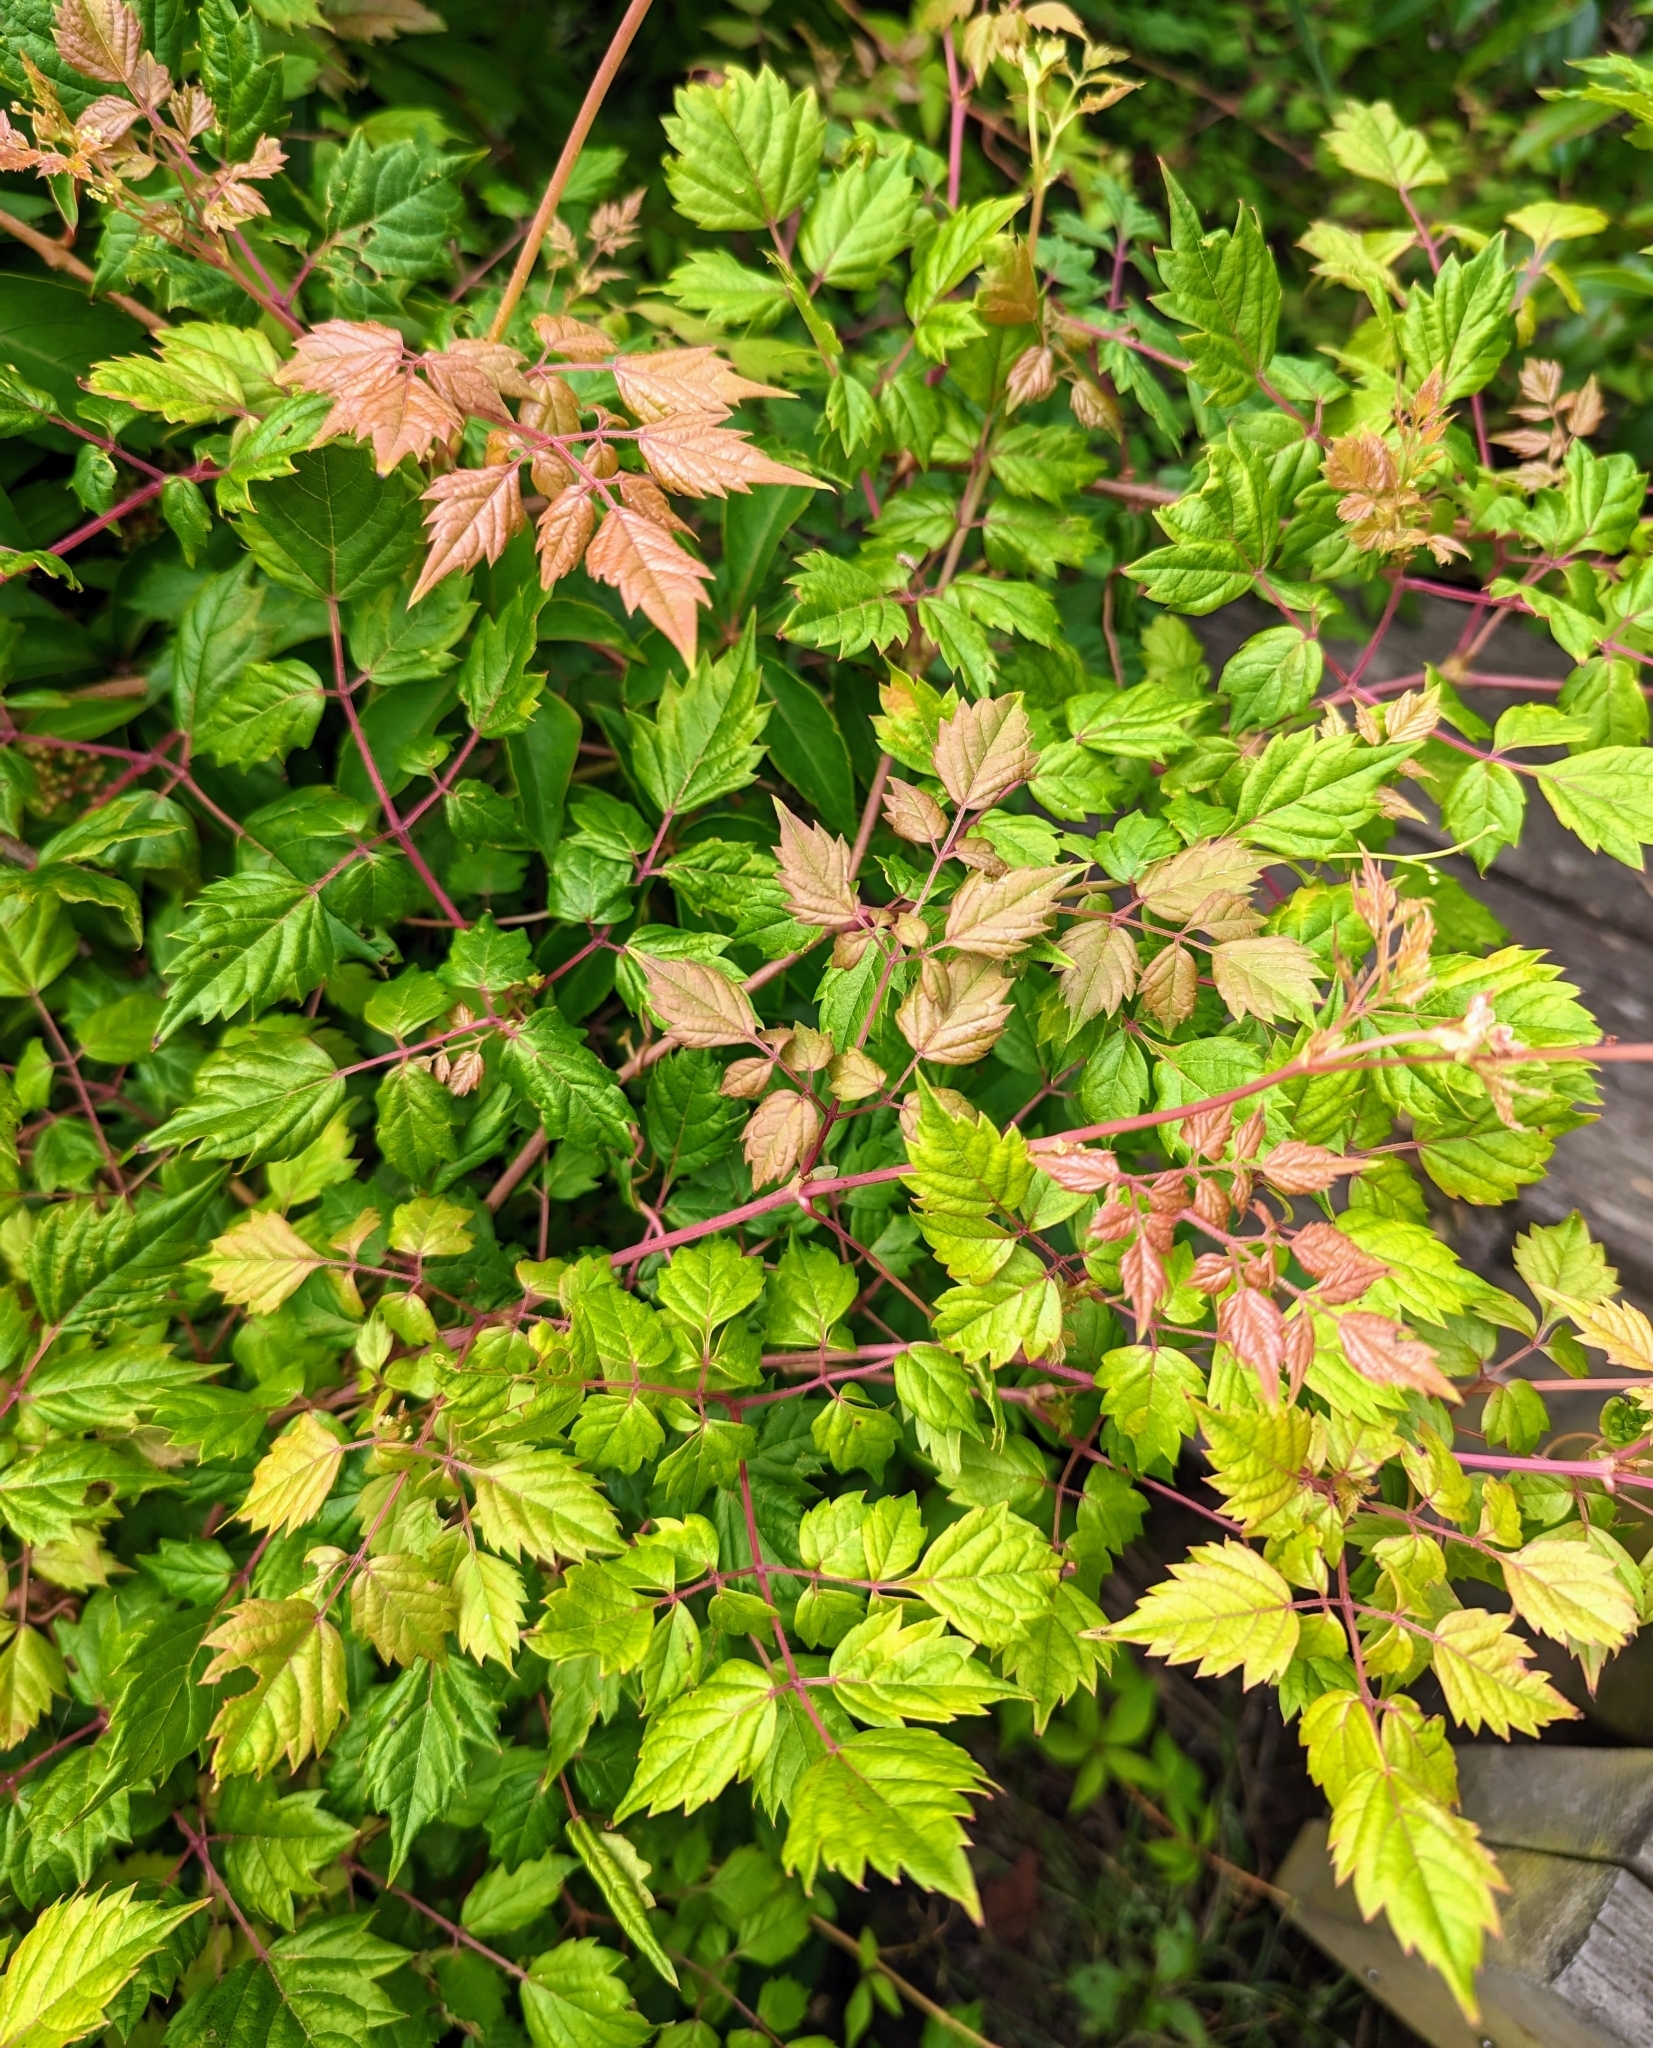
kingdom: Plantae
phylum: Tracheophyta
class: Magnoliopsida
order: Vitales
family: Vitaceae
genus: Nekemias
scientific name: Nekemias arborea
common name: Peppervine
